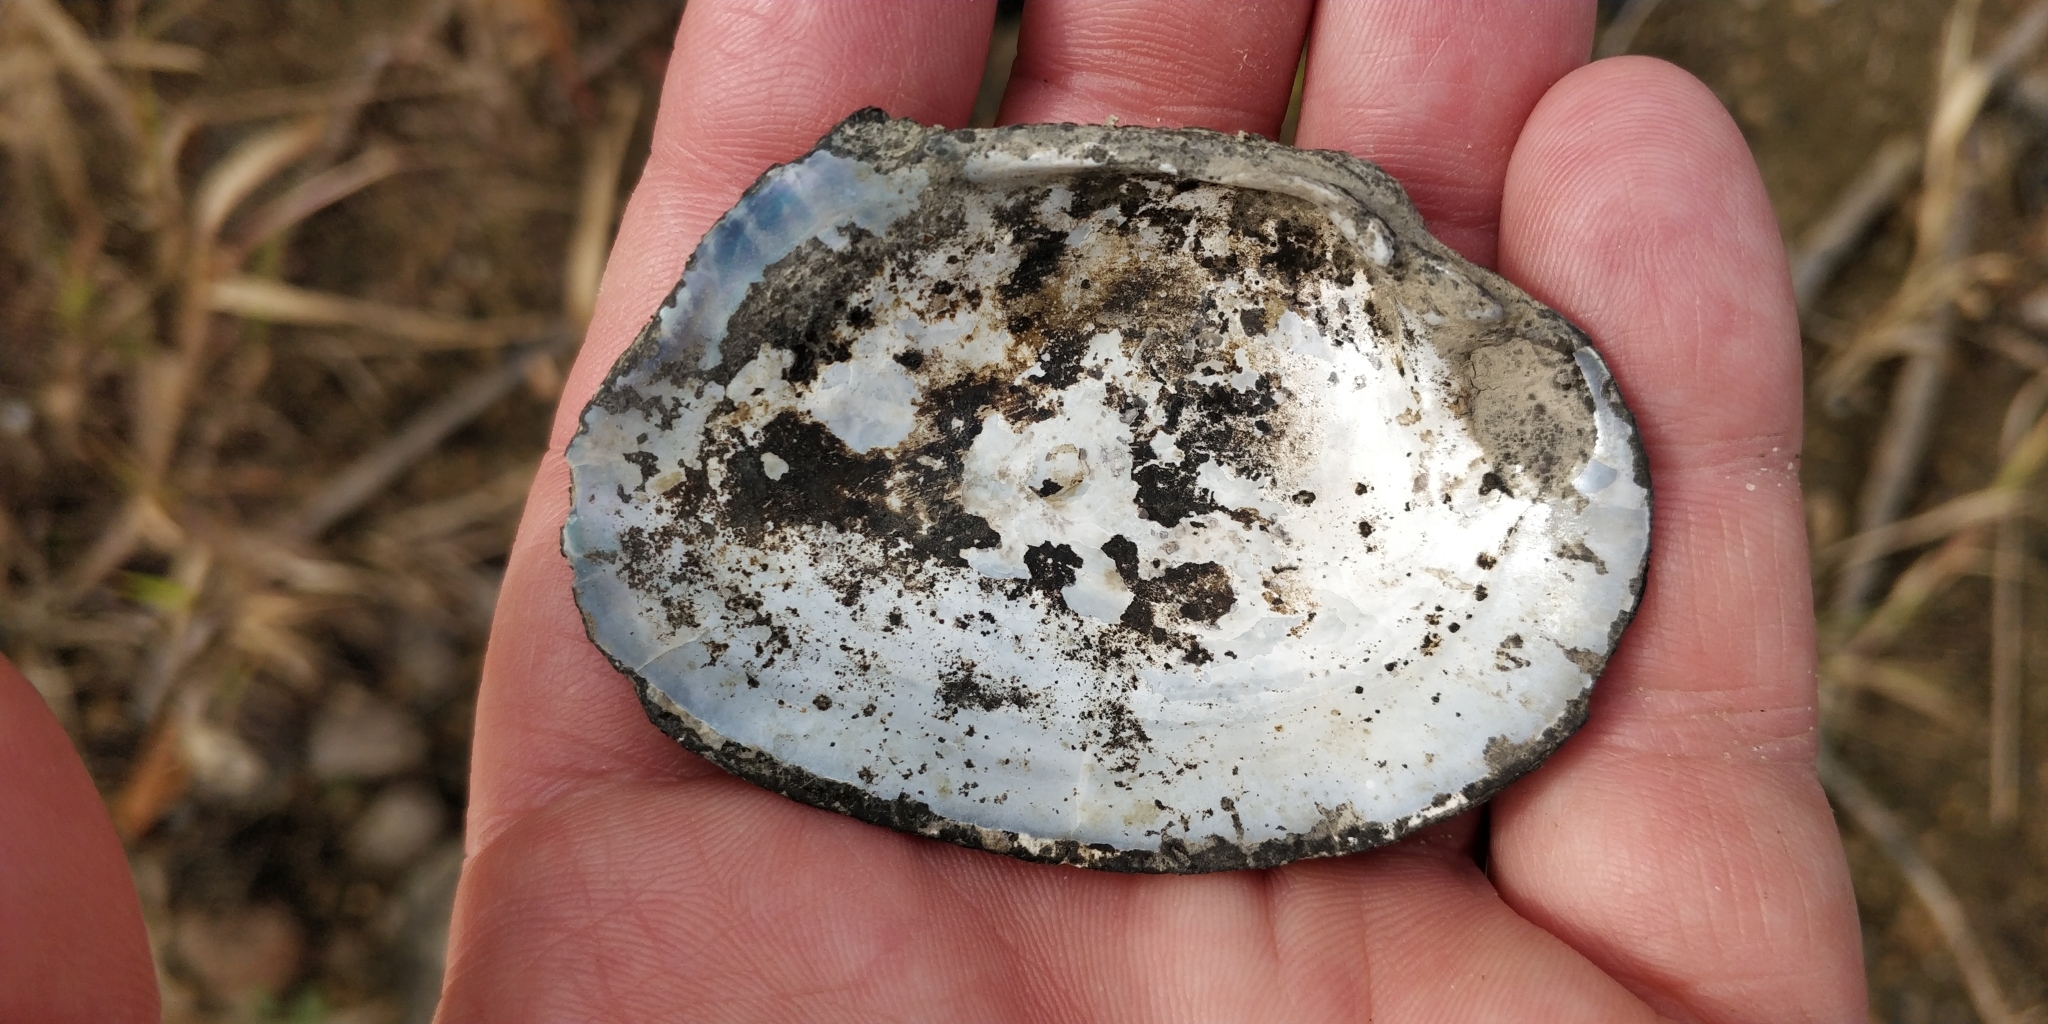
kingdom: Animalia
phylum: Mollusca
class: Bivalvia
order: Unionida
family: Unionidae
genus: Arcidens
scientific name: Arcidens confragosus
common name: Rock pocketbook
